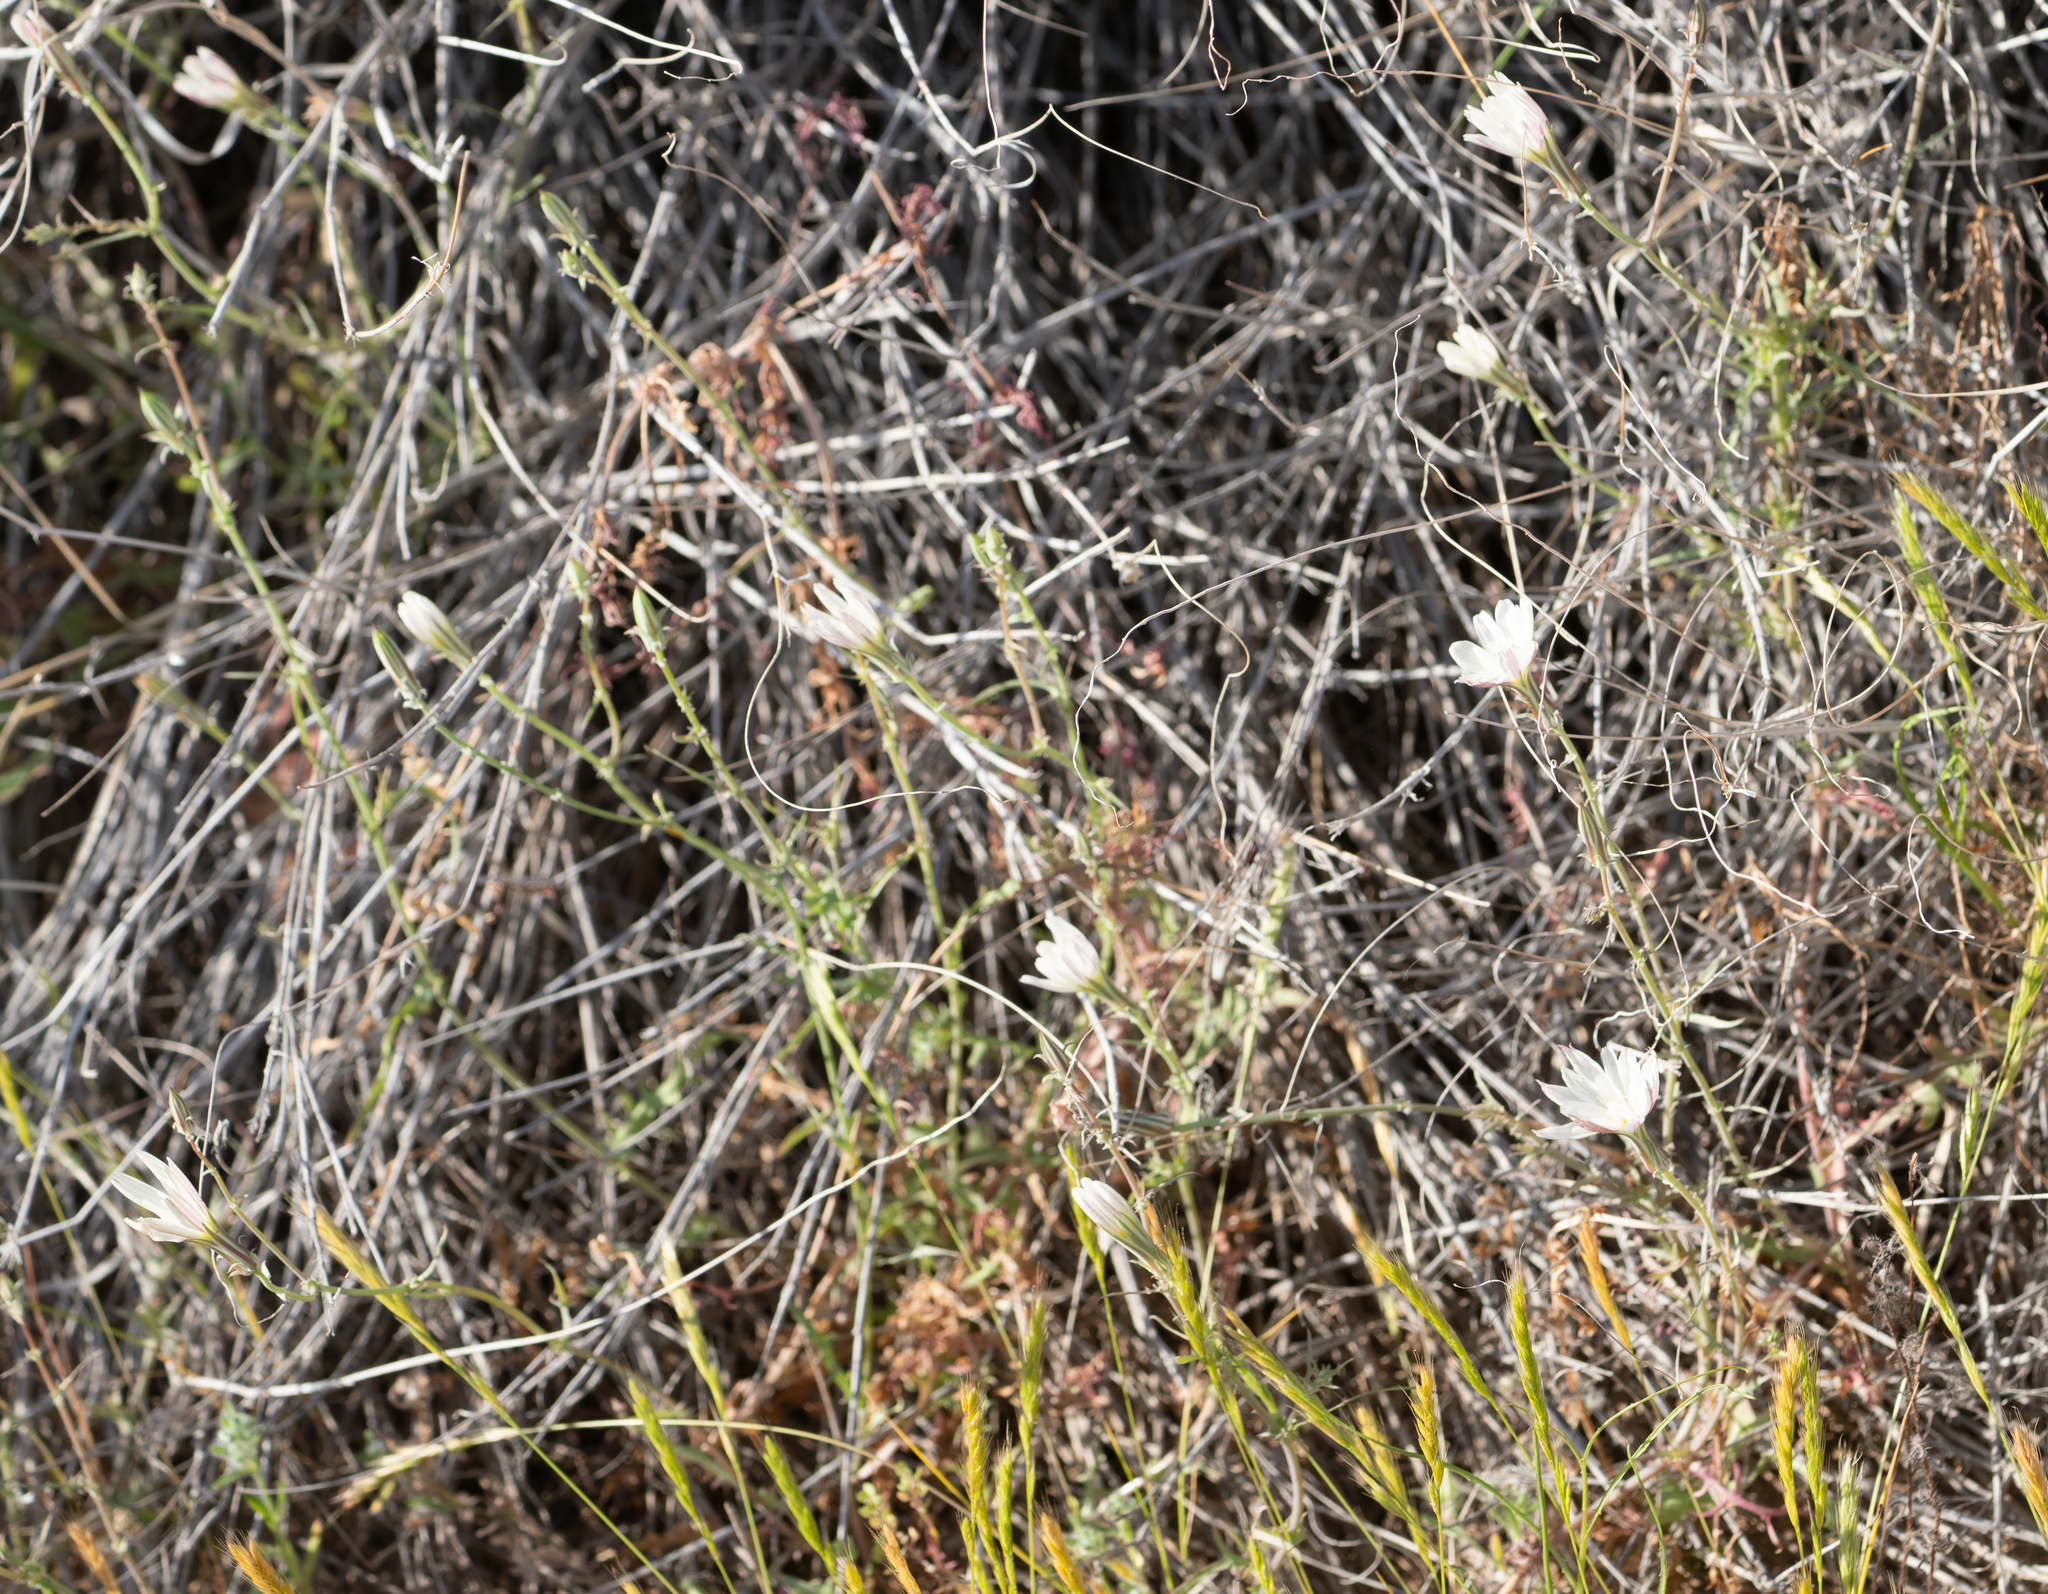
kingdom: Plantae
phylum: Tracheophyta
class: Magnoliopsida
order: Asterales
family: Asteraceae
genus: Rafinesquia
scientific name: Rafinesquia neomexicana
